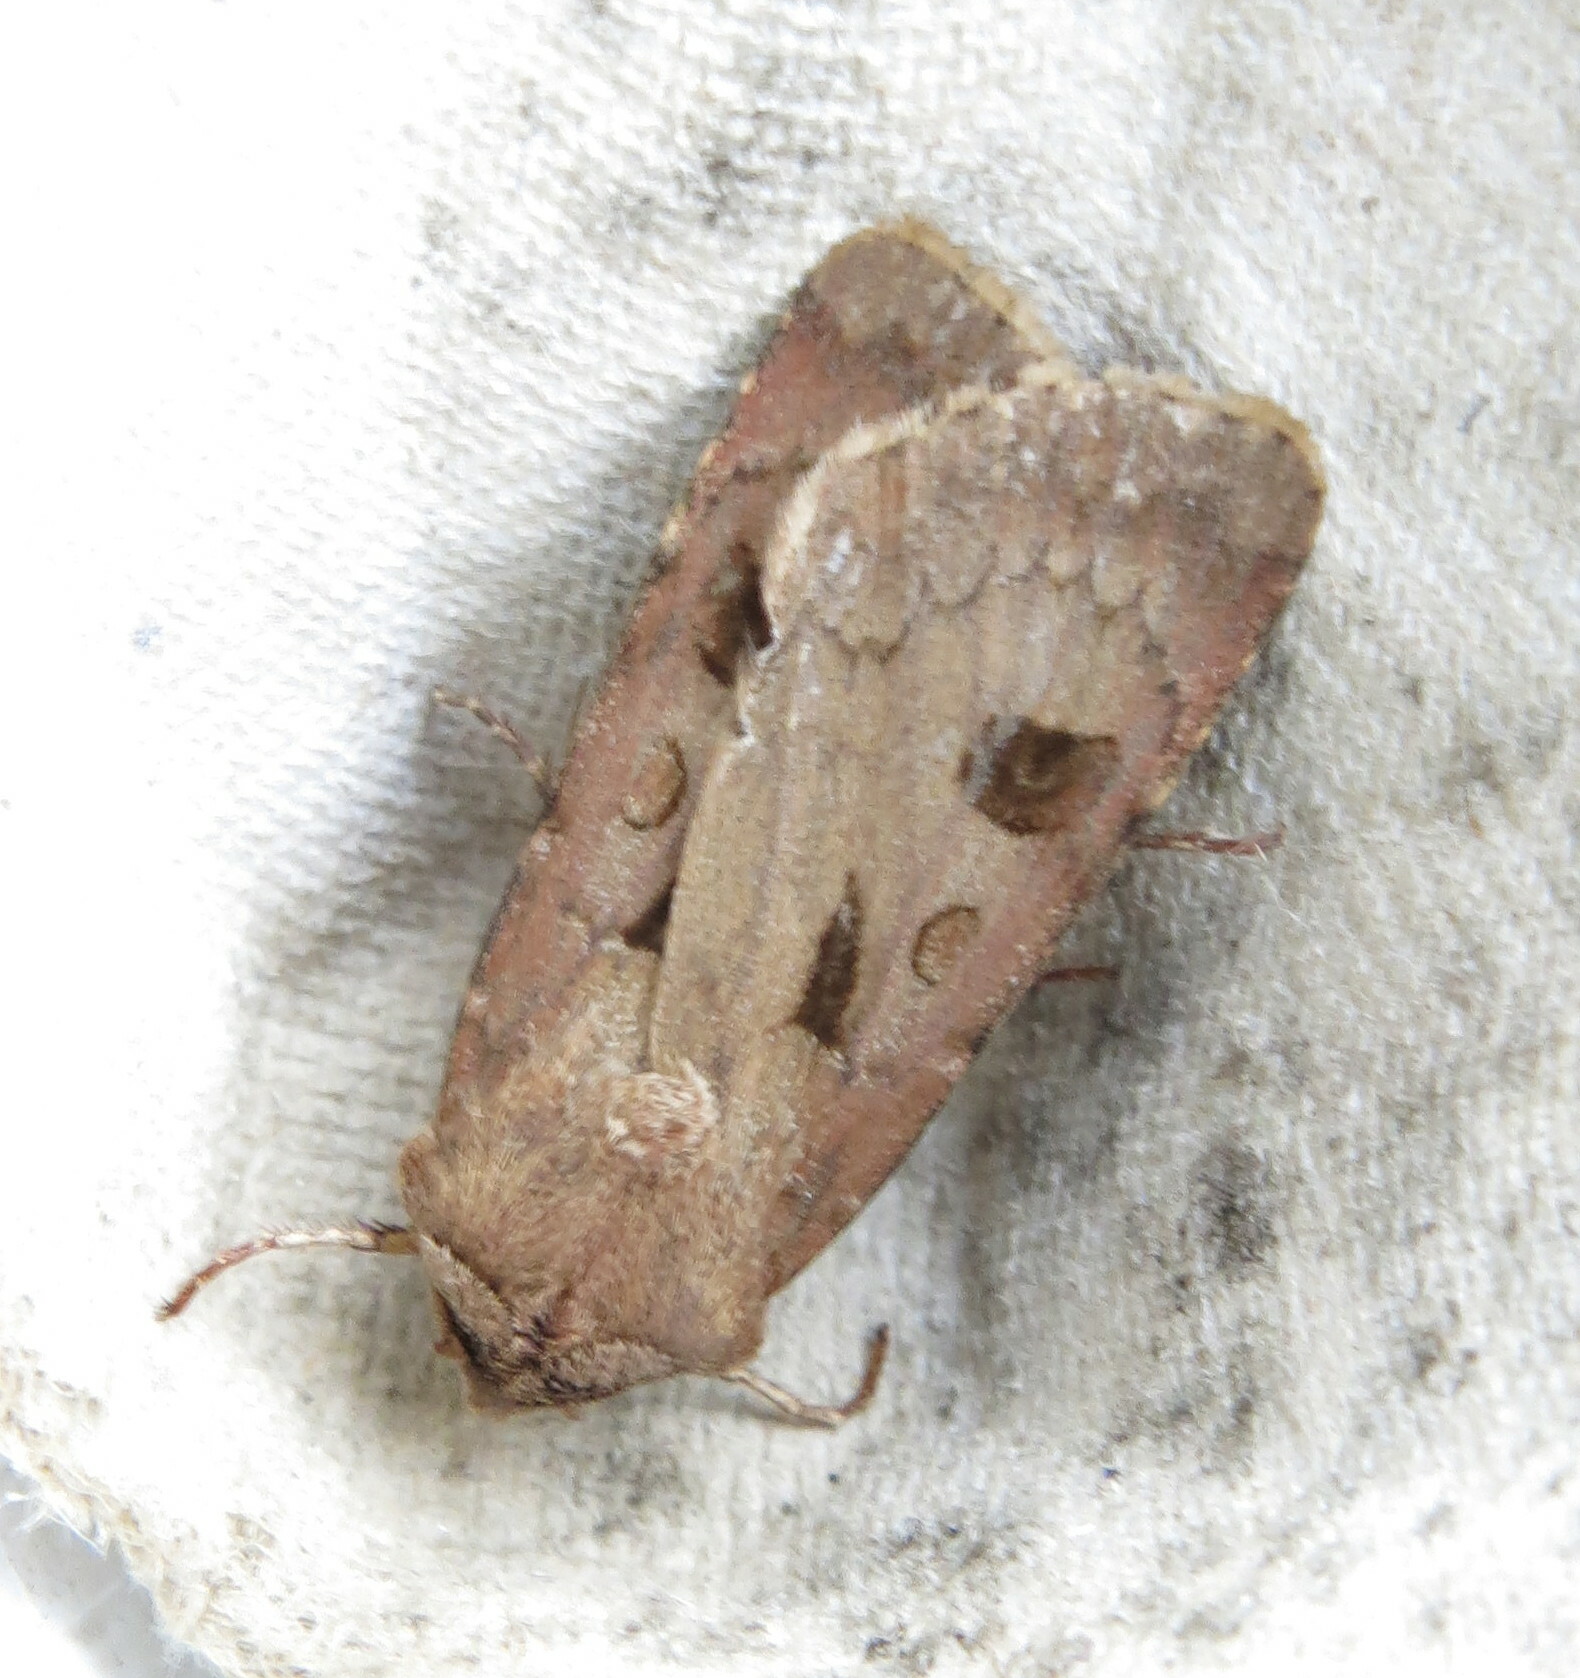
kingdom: Animalia
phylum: Arthropoda
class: Insecta
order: Lepidoptera
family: Noctuidae
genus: Agrotis
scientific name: Agrotis exclamationis
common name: Heart and dart
